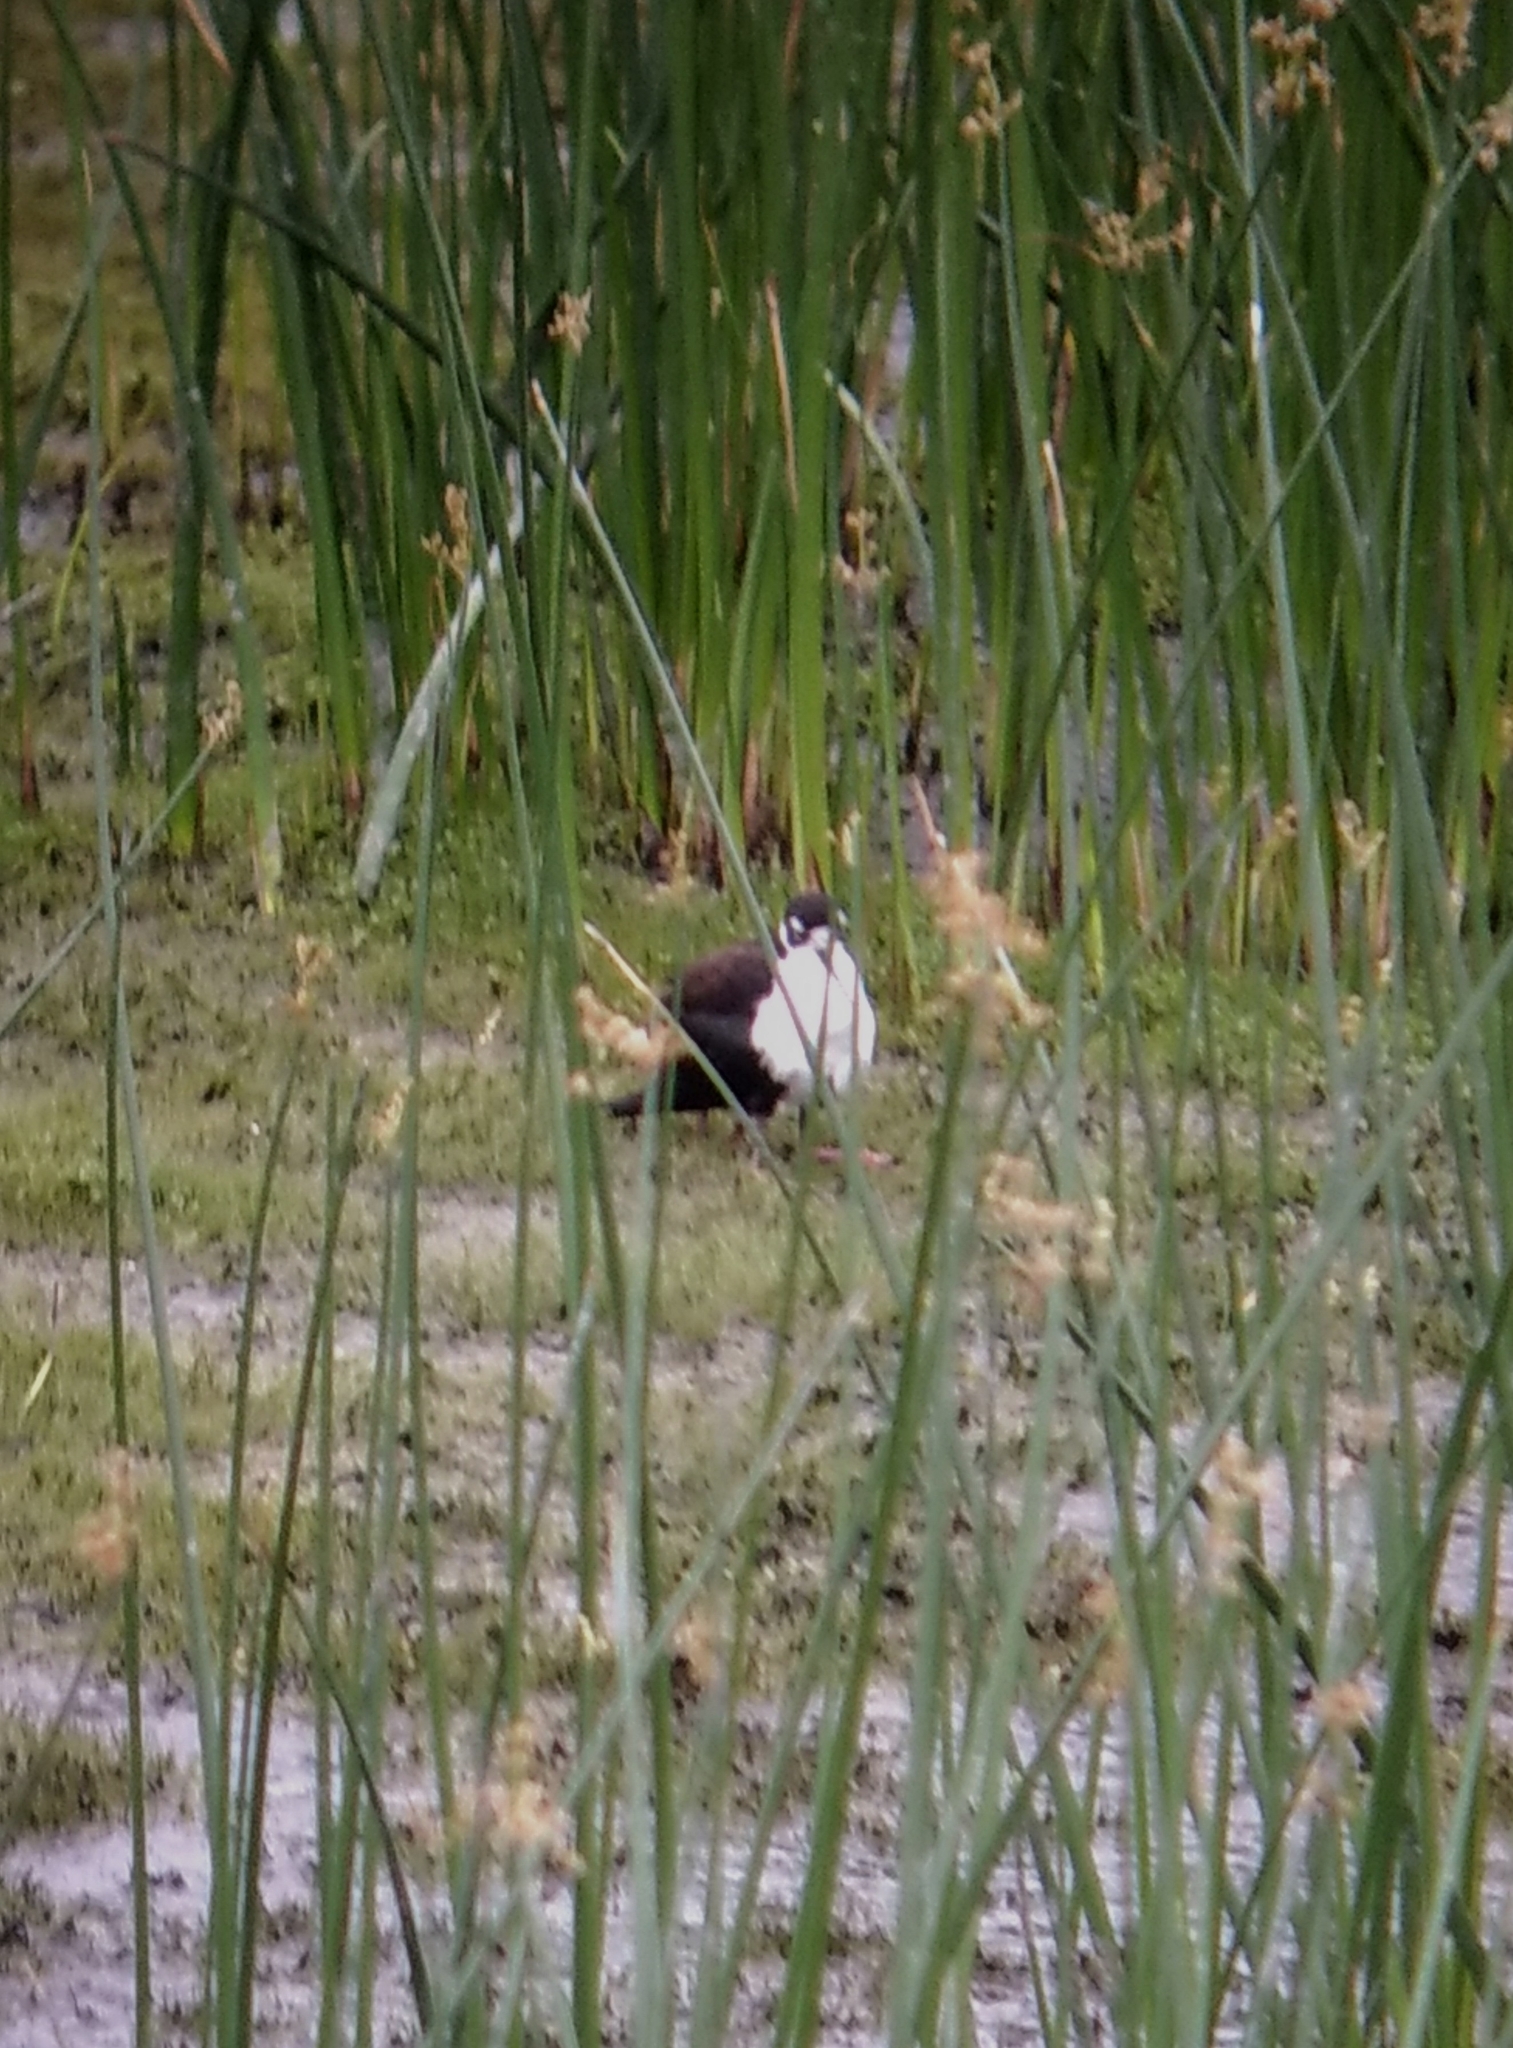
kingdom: Animalia
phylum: Chordata
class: Aves
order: Charadriiformes
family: Recurvirostridae
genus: Himantopus
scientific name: Himantopus mexicanus
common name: Black-necked stilt
